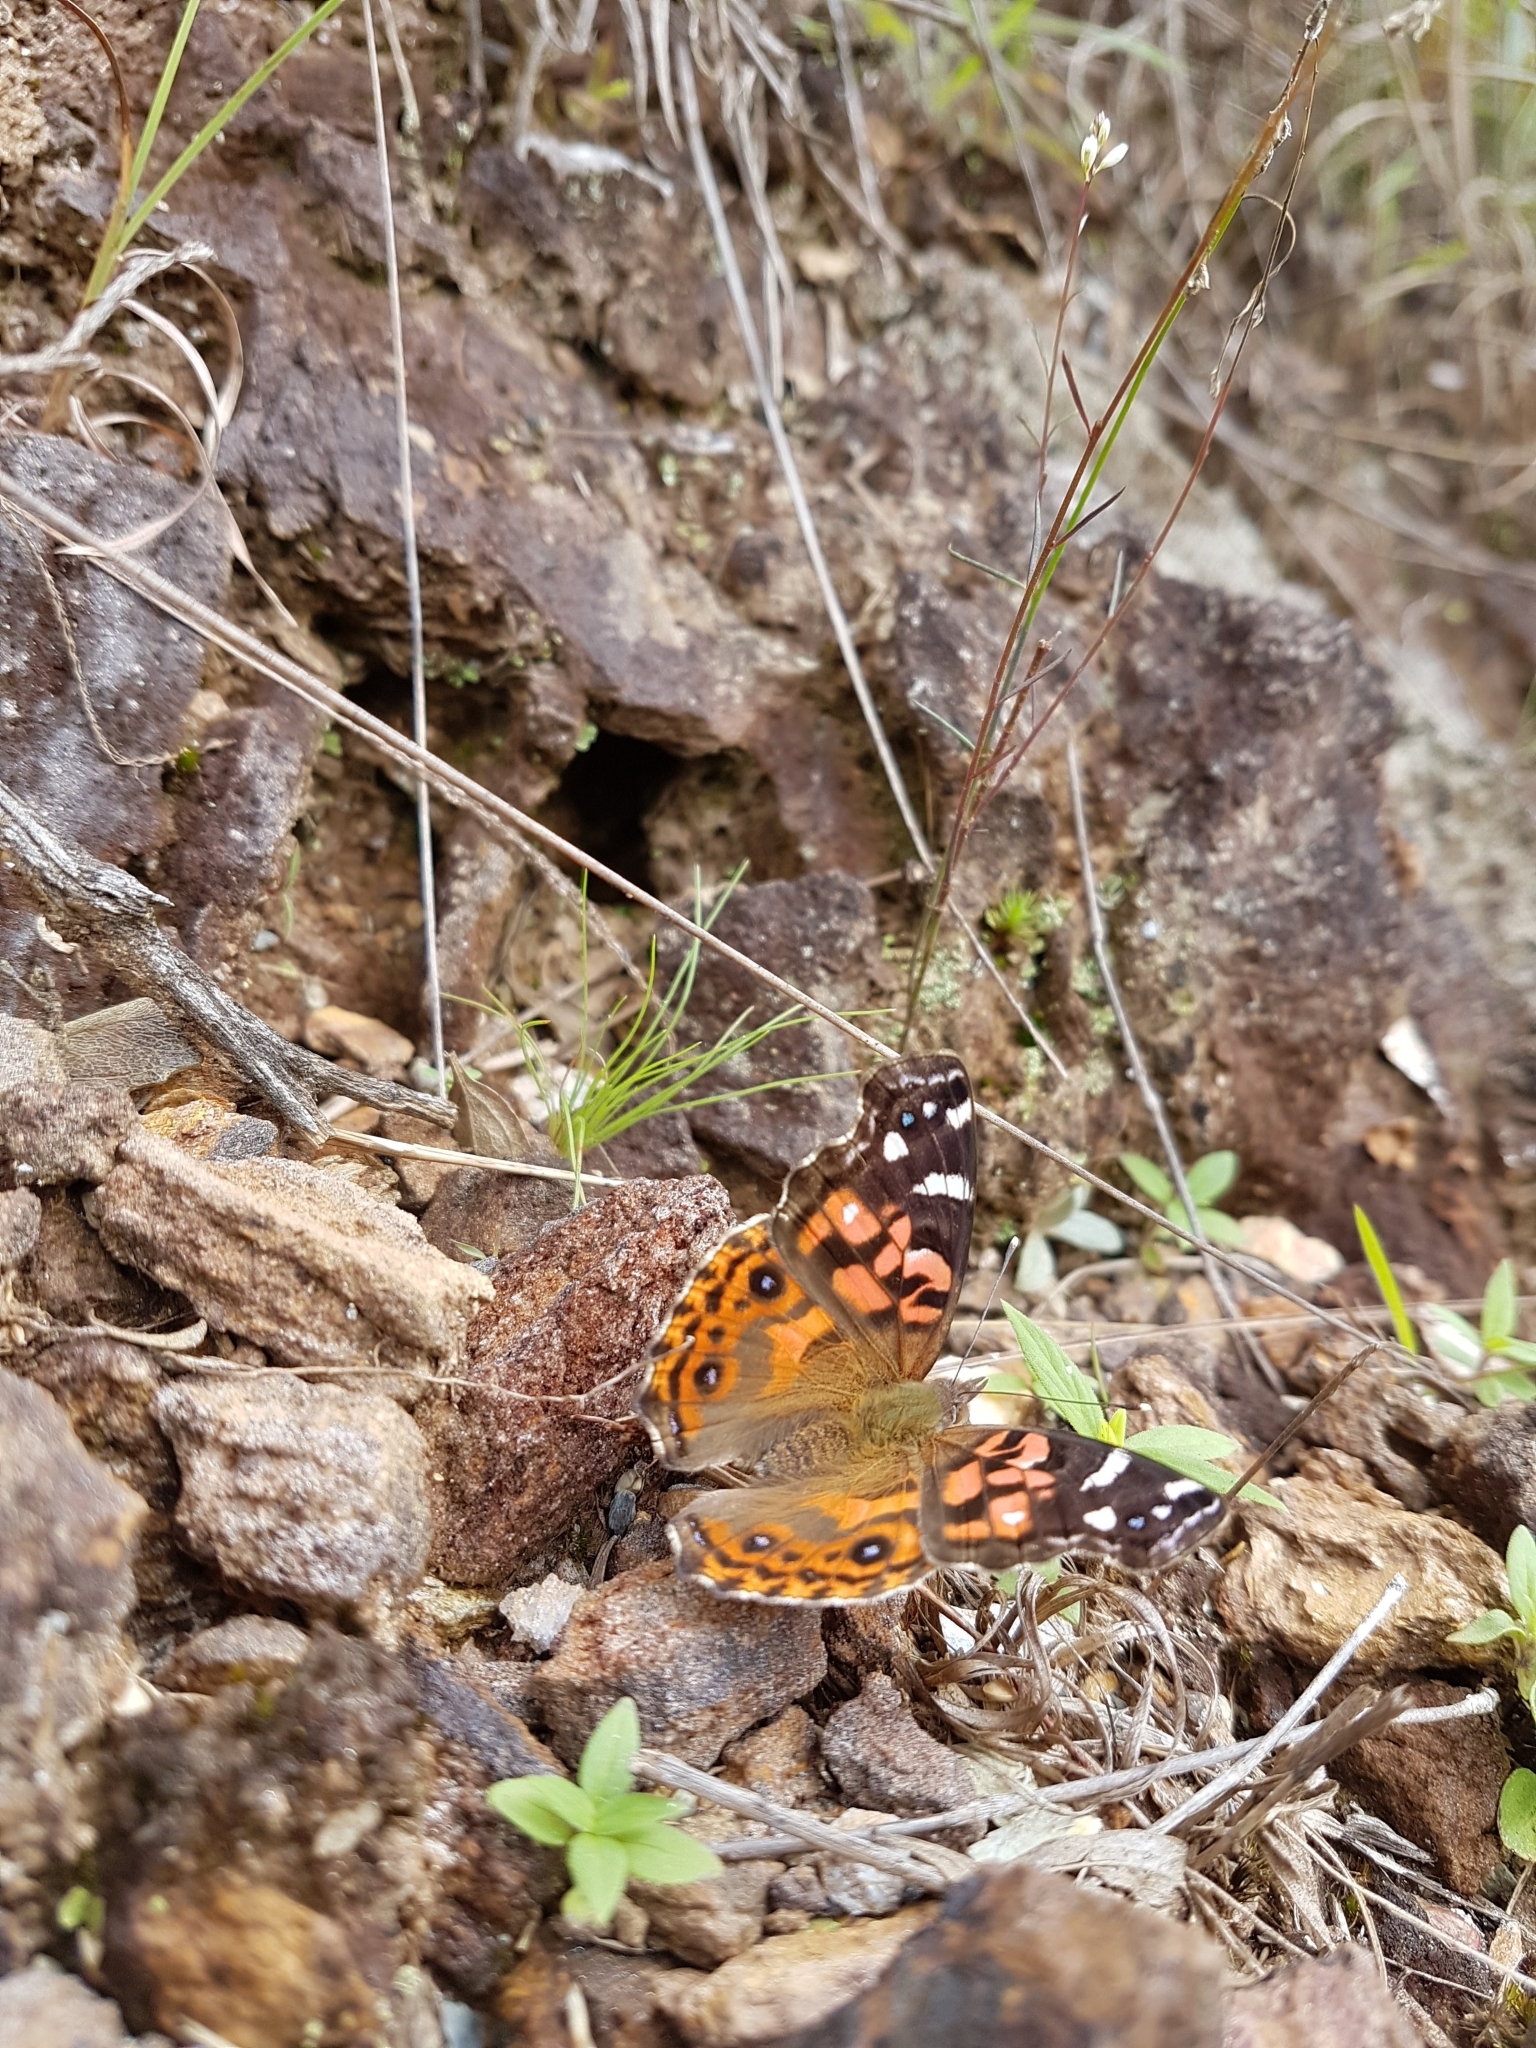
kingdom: Animalia
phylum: Arthropoda
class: Insecta
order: Lepidoptera
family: Nymphalidae
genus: Vanessa
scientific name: Vanessa braziliensis
